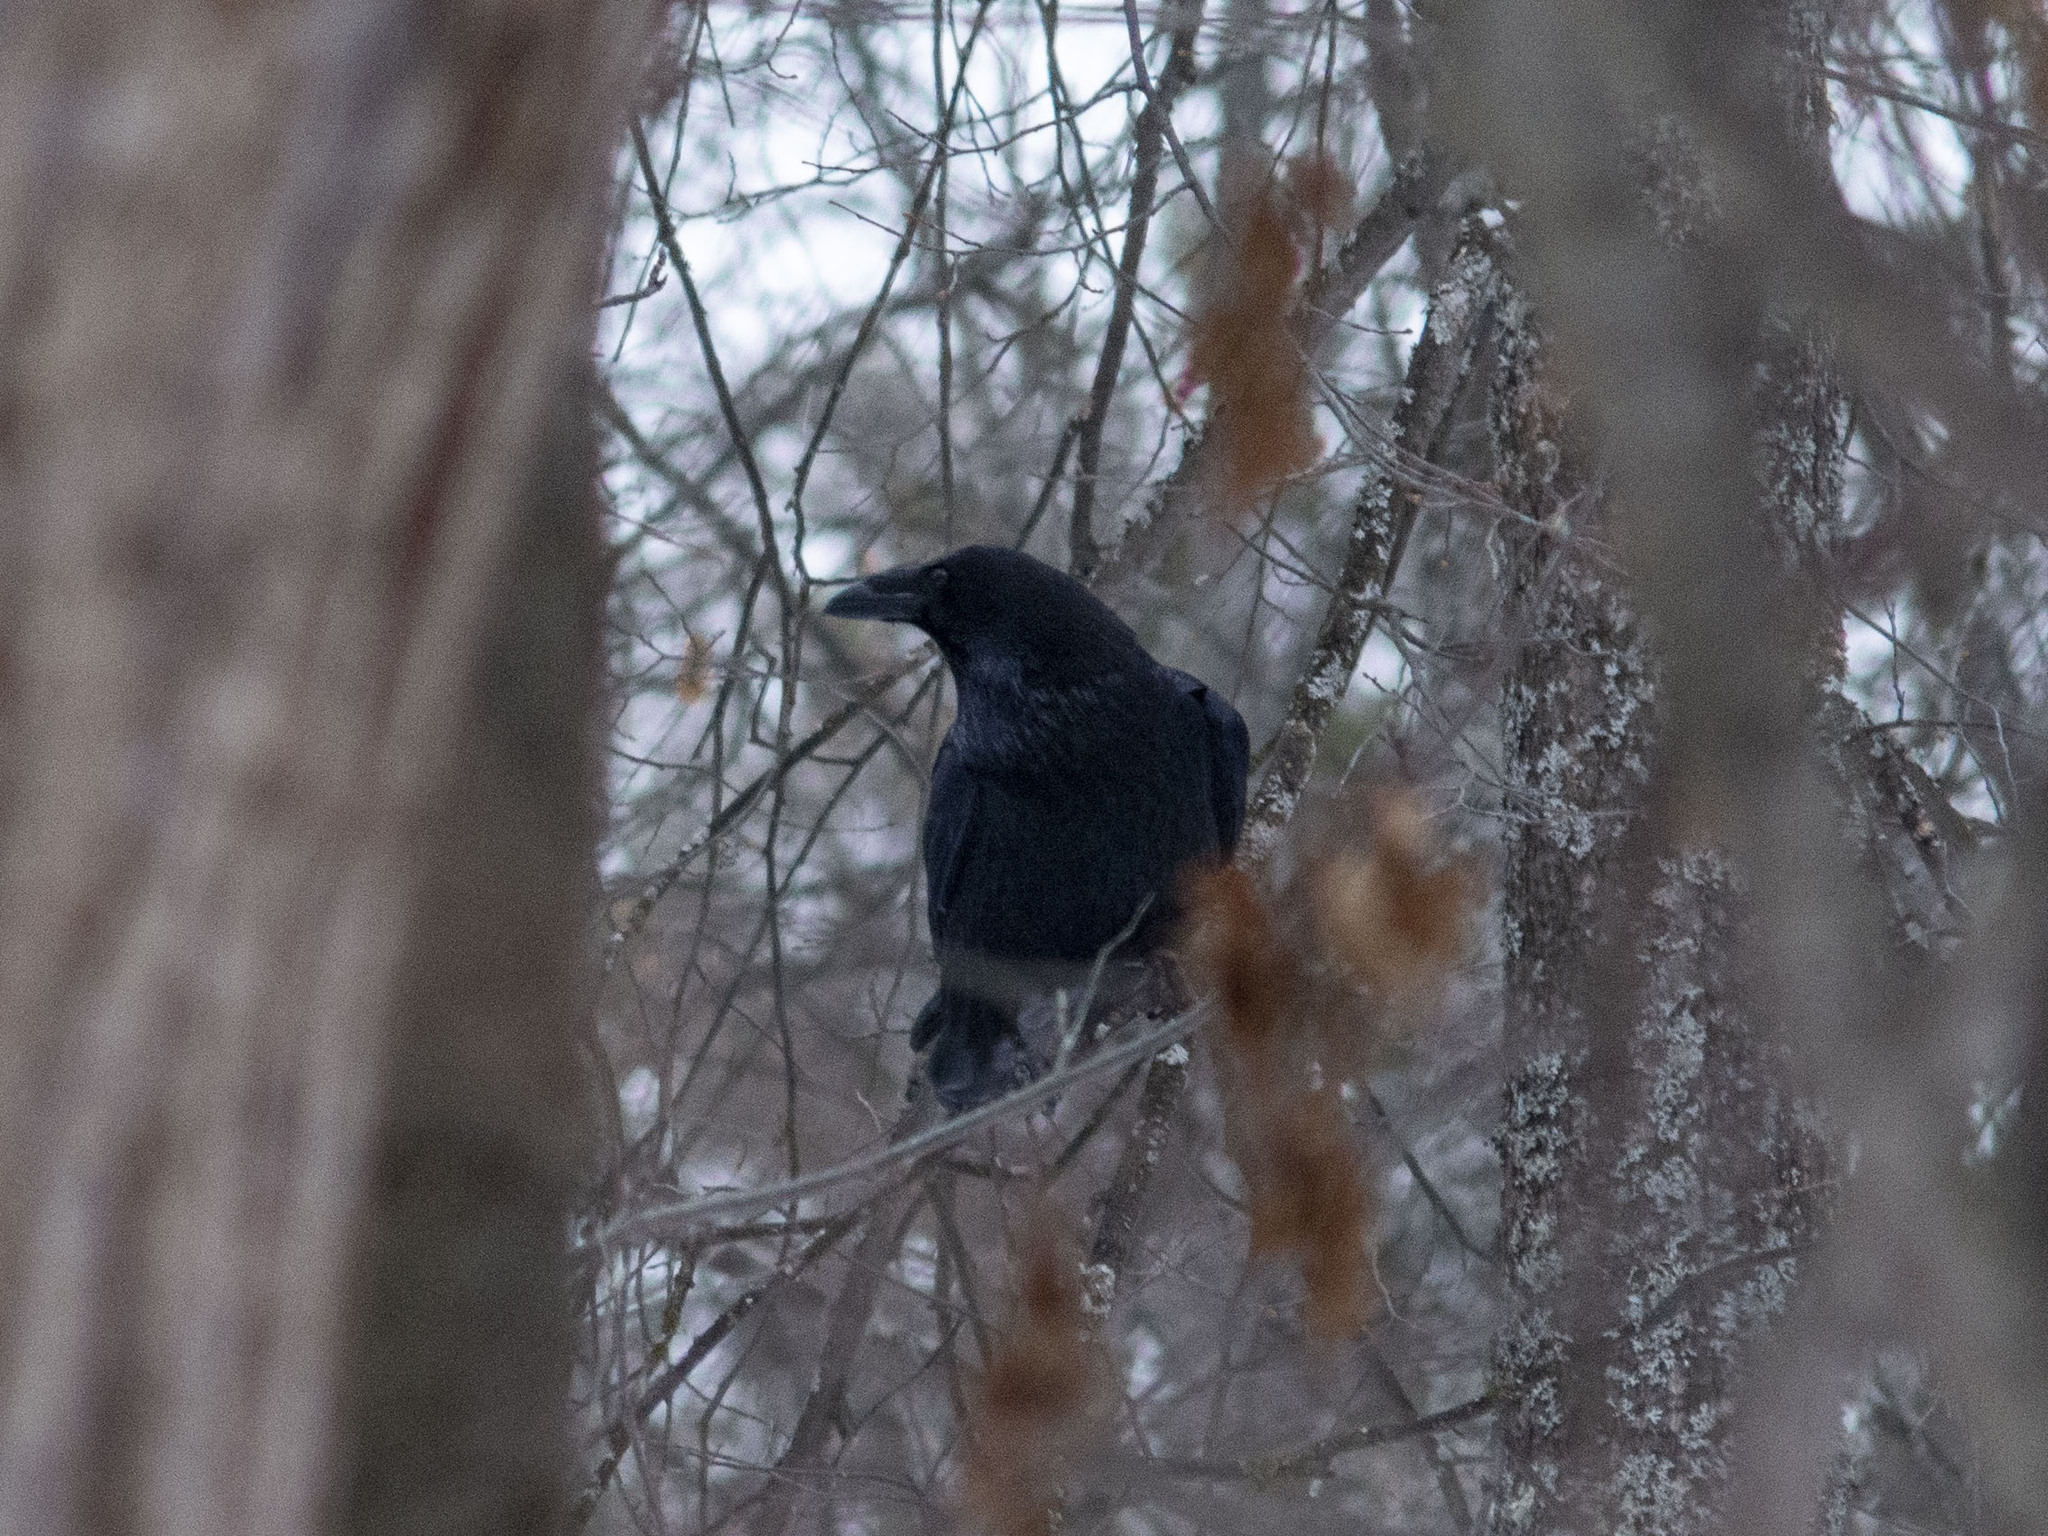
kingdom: Animalia
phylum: Chordata
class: Aves
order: Passeriformes
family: Corvidae
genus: Corvus
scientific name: Corvus corax
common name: Common raven
